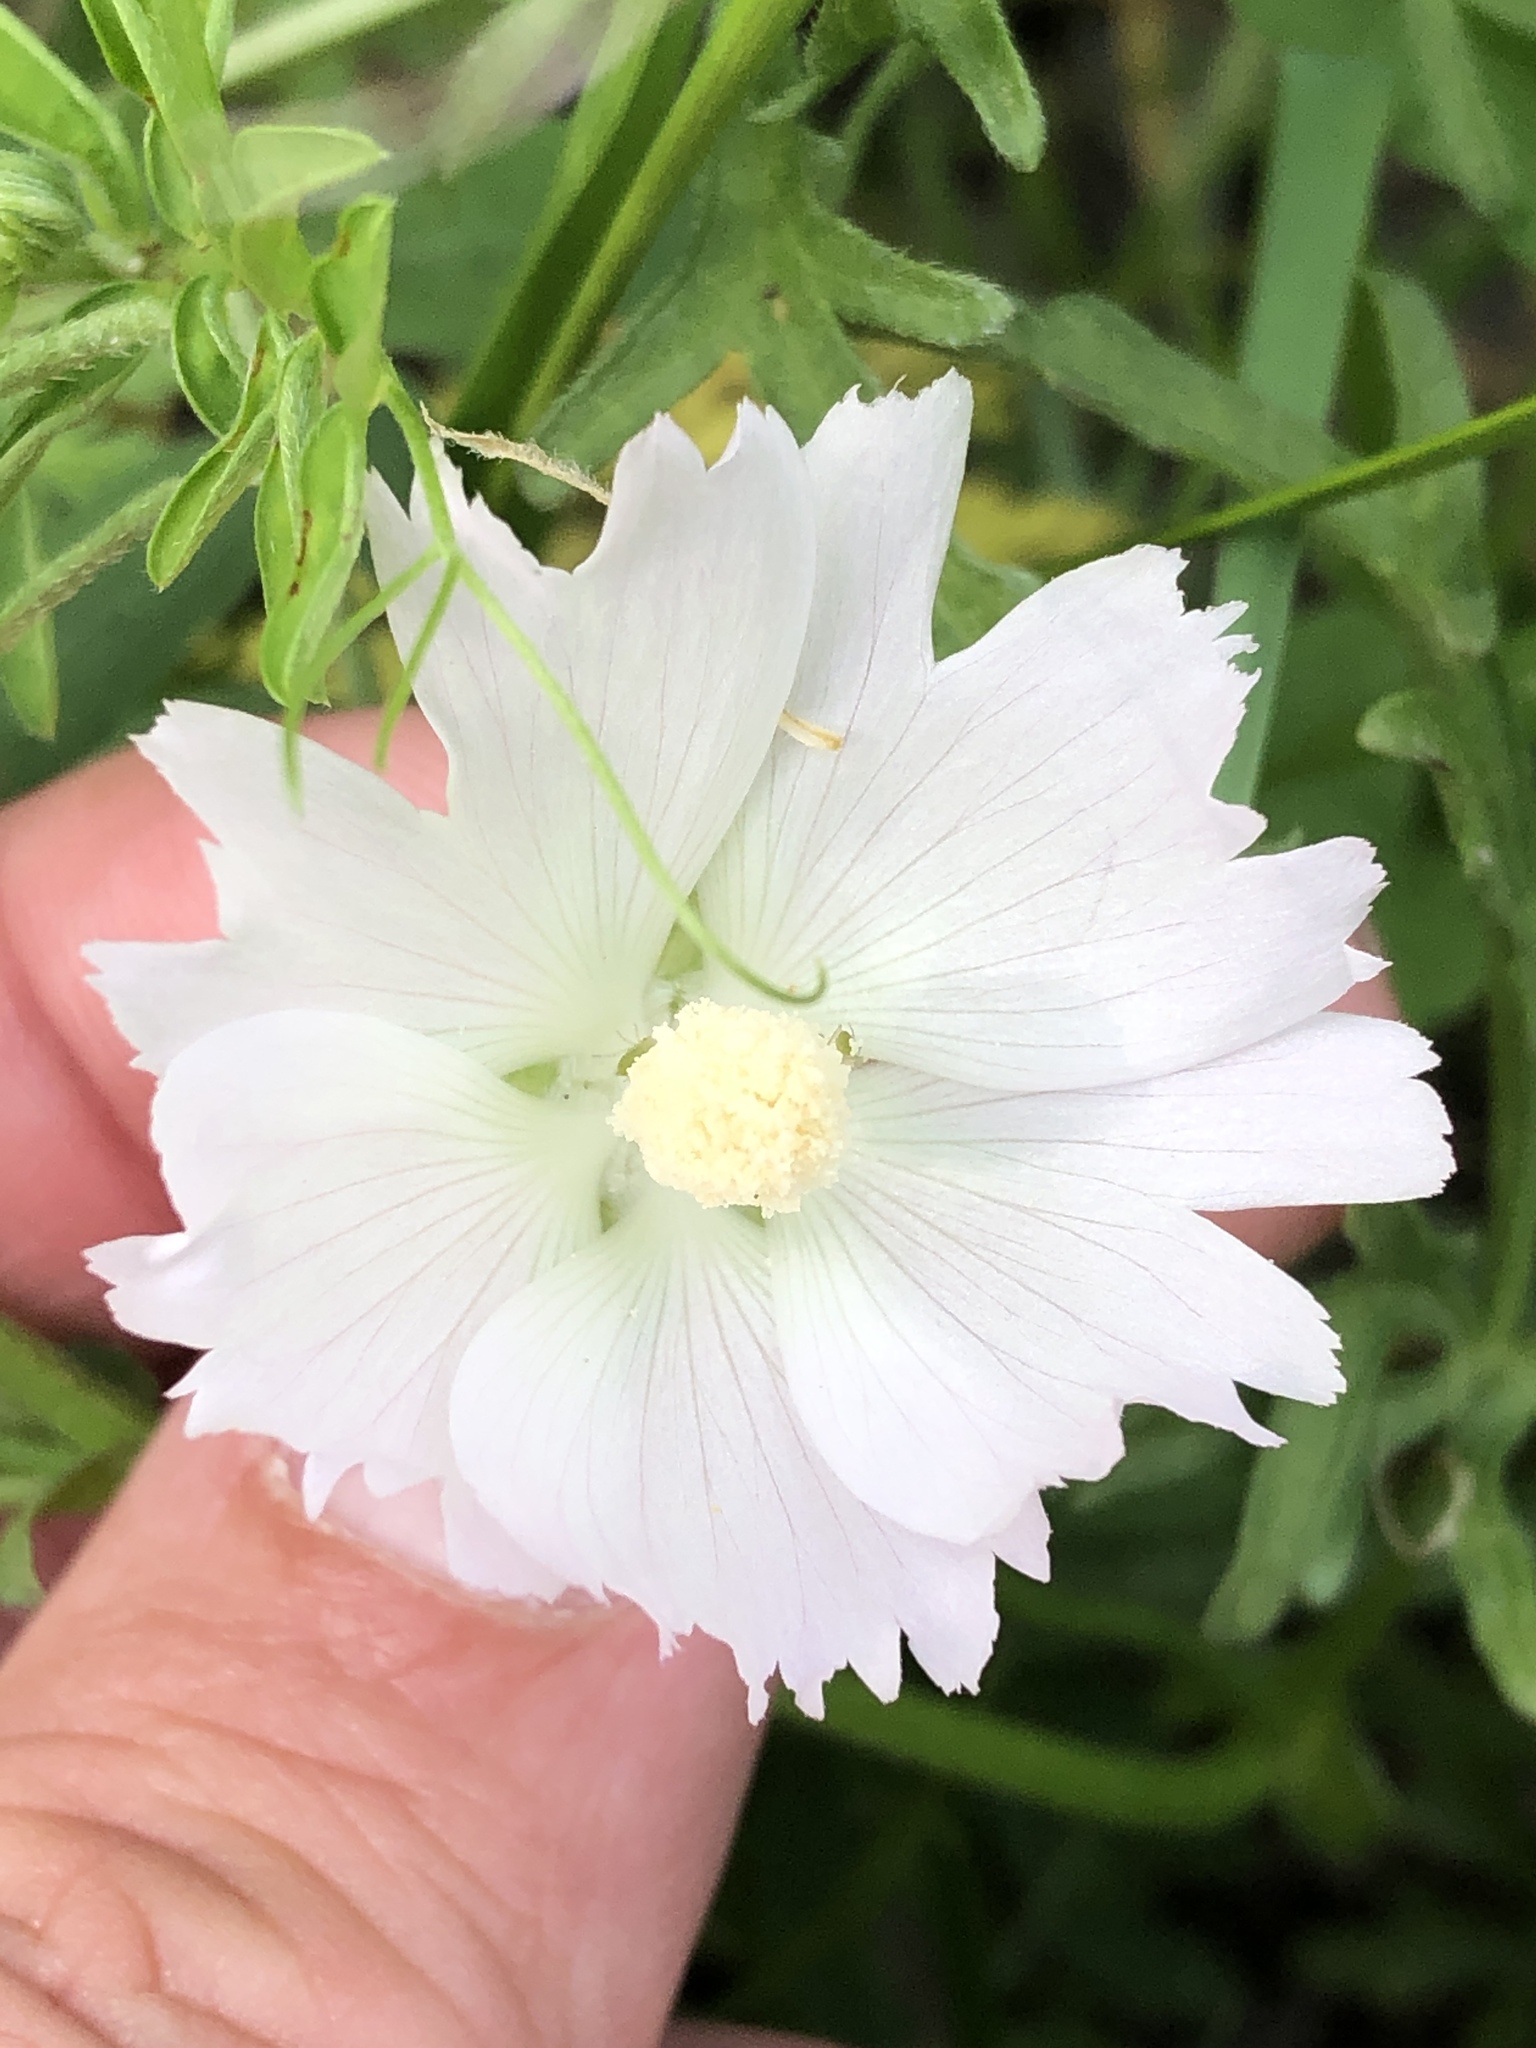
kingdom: Plantae
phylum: Tracheophyta
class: Magnoliopsida
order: Malvales
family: Malvaceae
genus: Callirhoe
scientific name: Callirhoe alcaeoides
